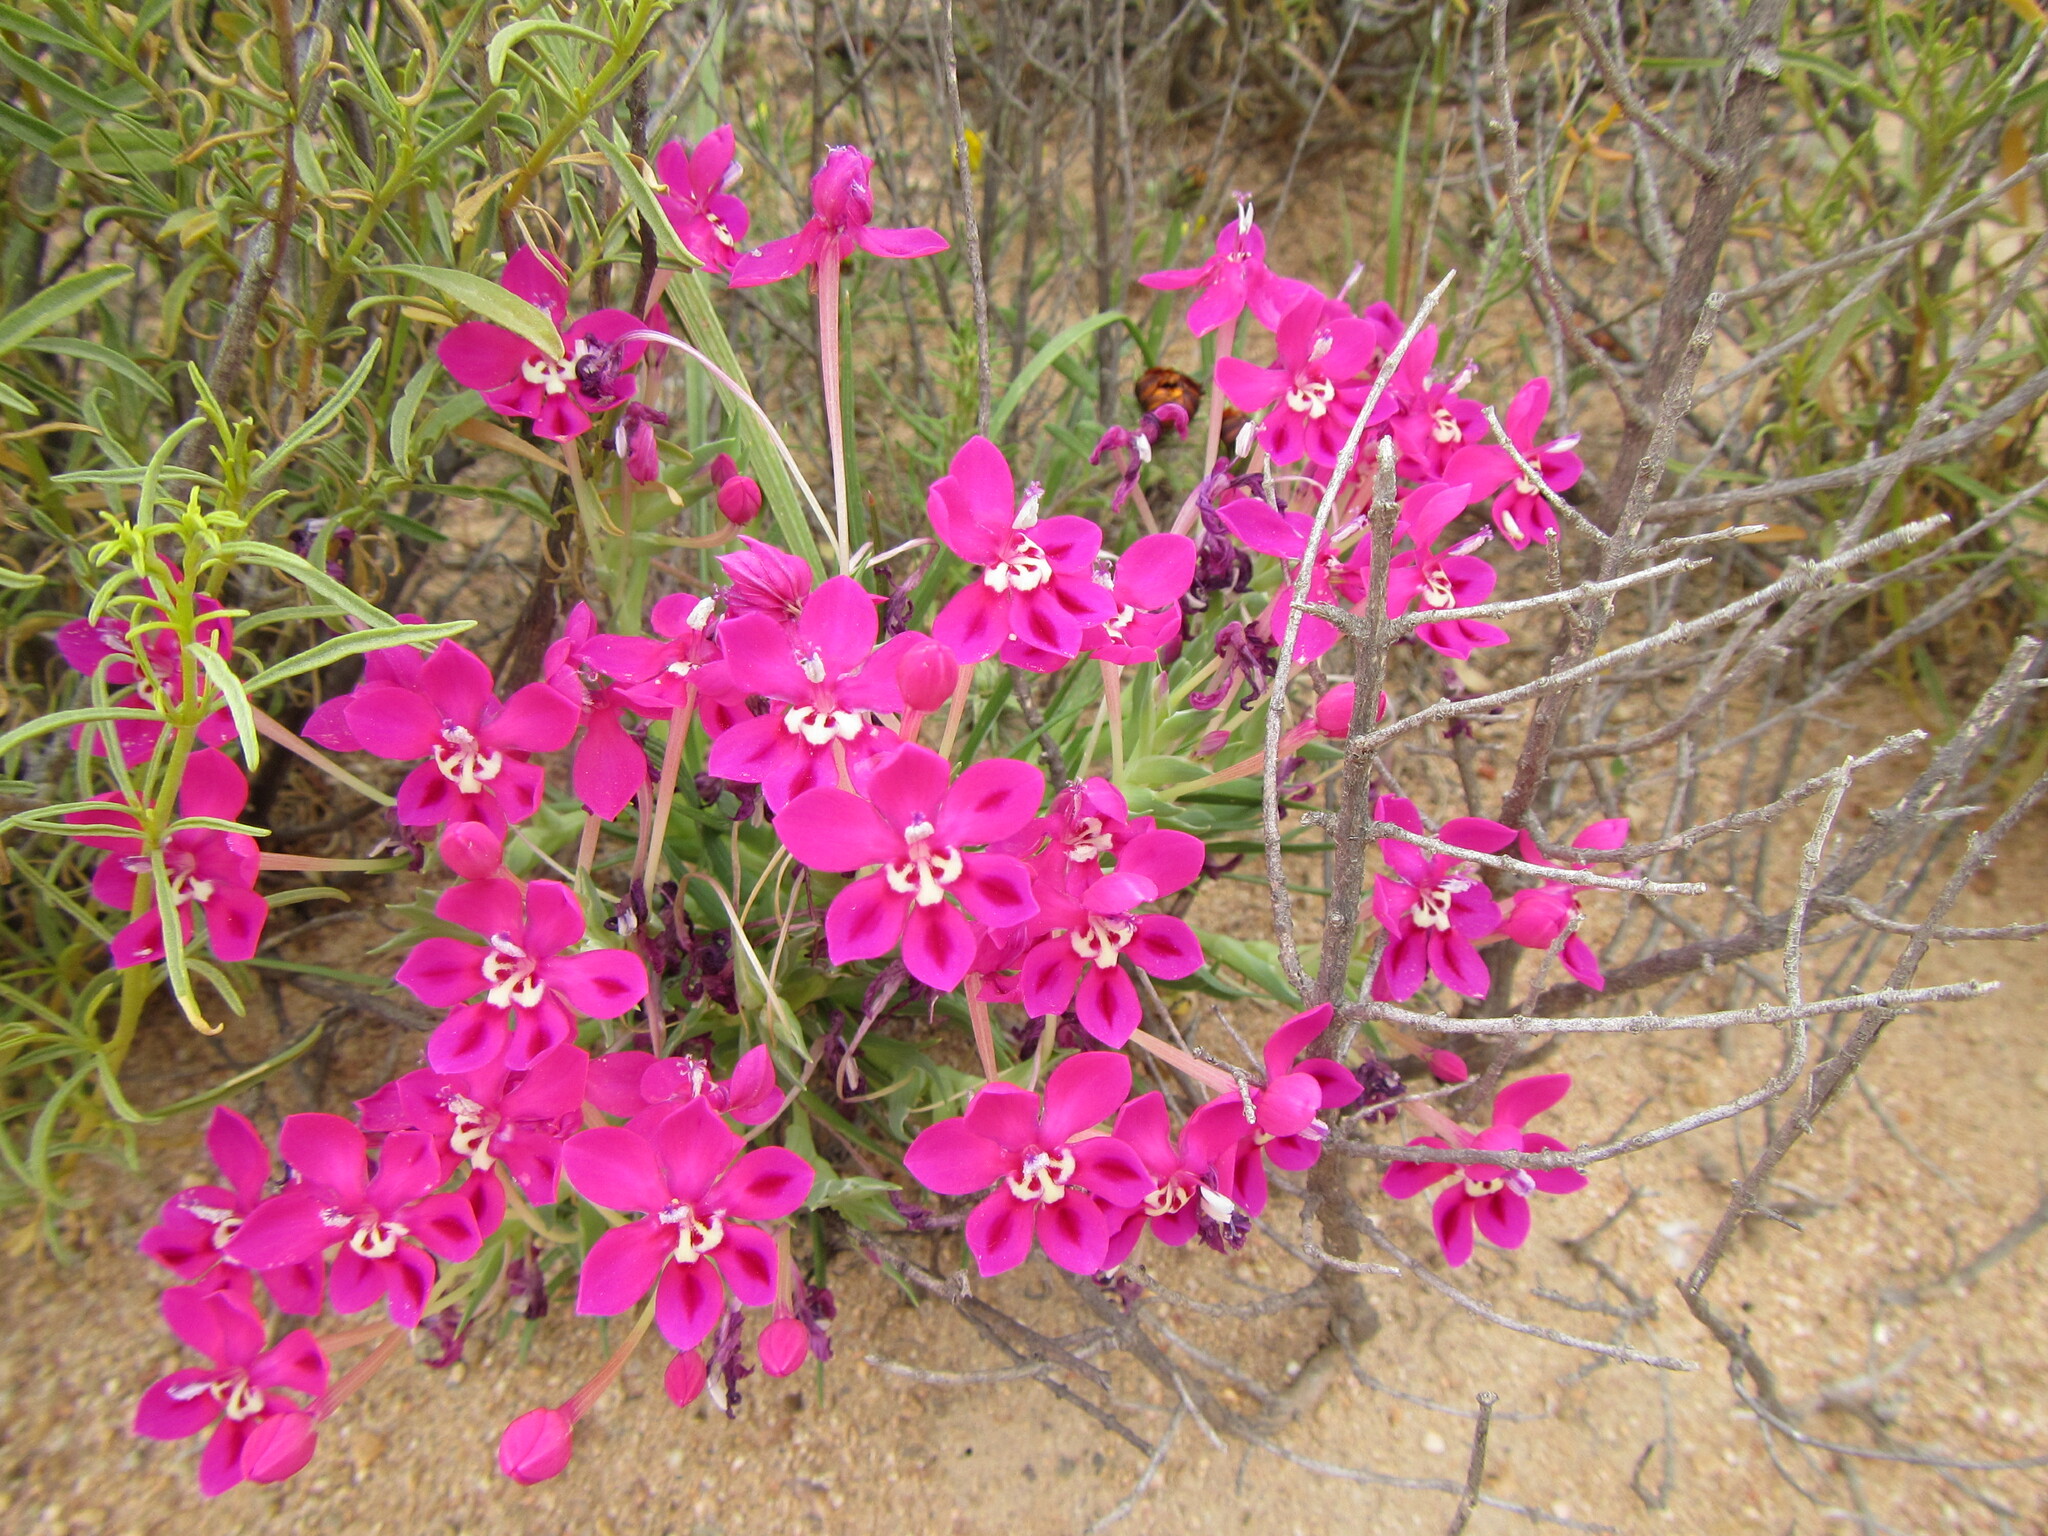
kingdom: Plantae
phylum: Tracheophyta
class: Liliopsida
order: Asparagales
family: Iridaceae
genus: Lapeirousia
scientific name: Lapeirousia silenoides
